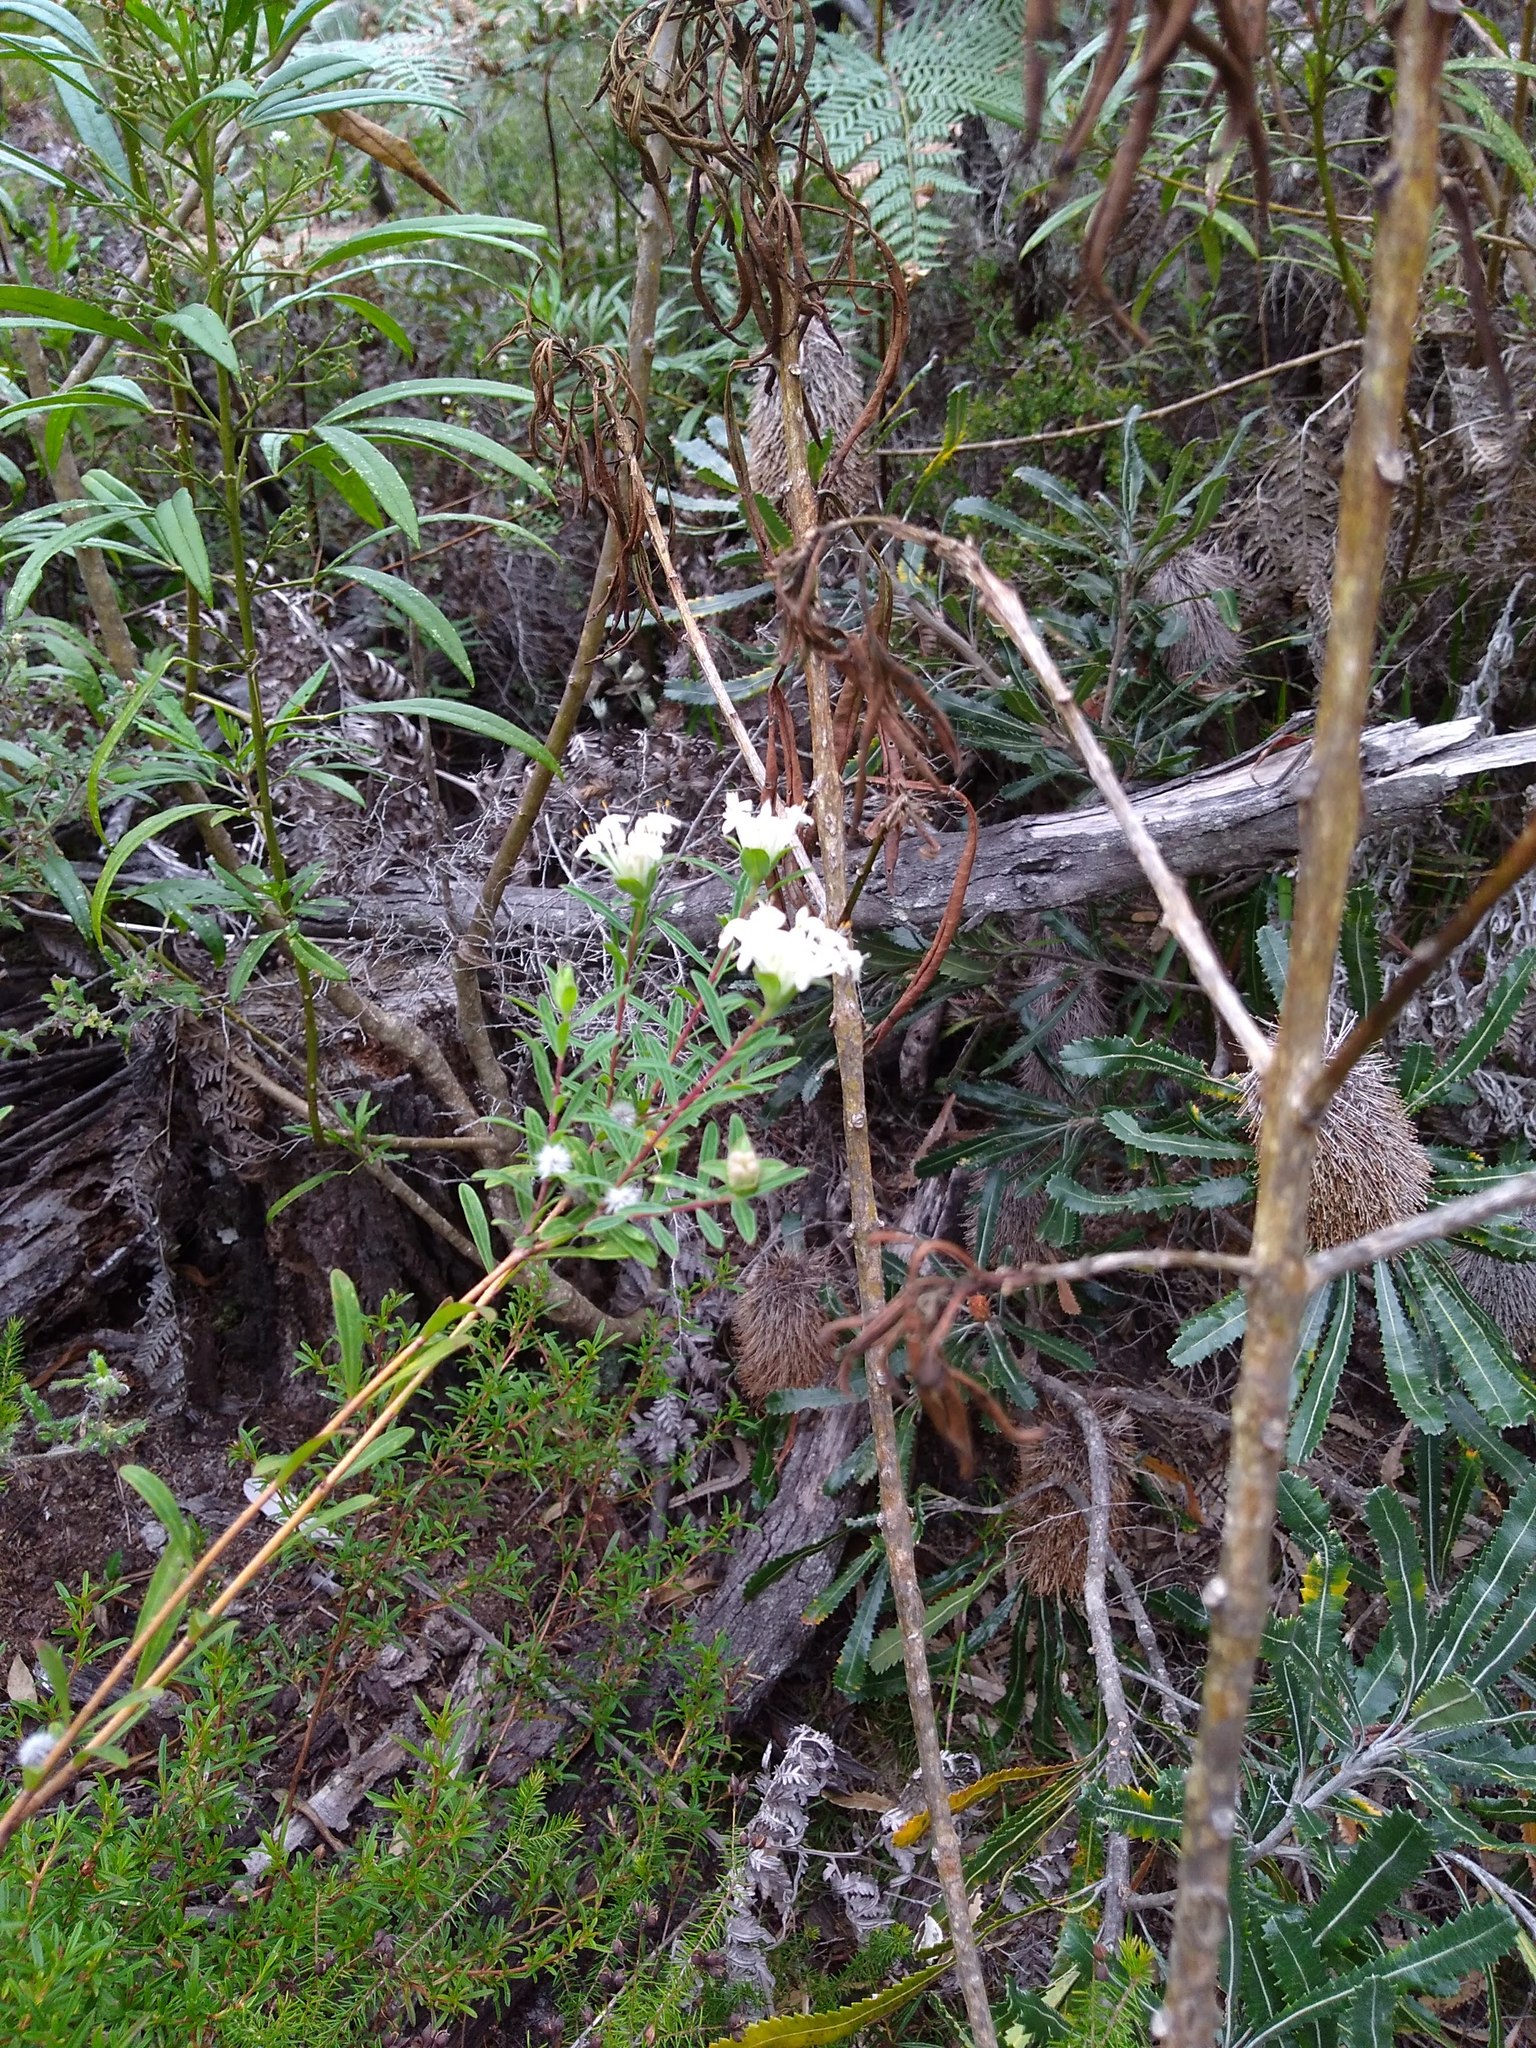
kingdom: Plantae
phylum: Tracheophyta
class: Magnoliopsida
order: Malvales
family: Thymelaeaceae
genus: Pimelea
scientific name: Pimelea linifolia
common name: Queen-of-the-bush
